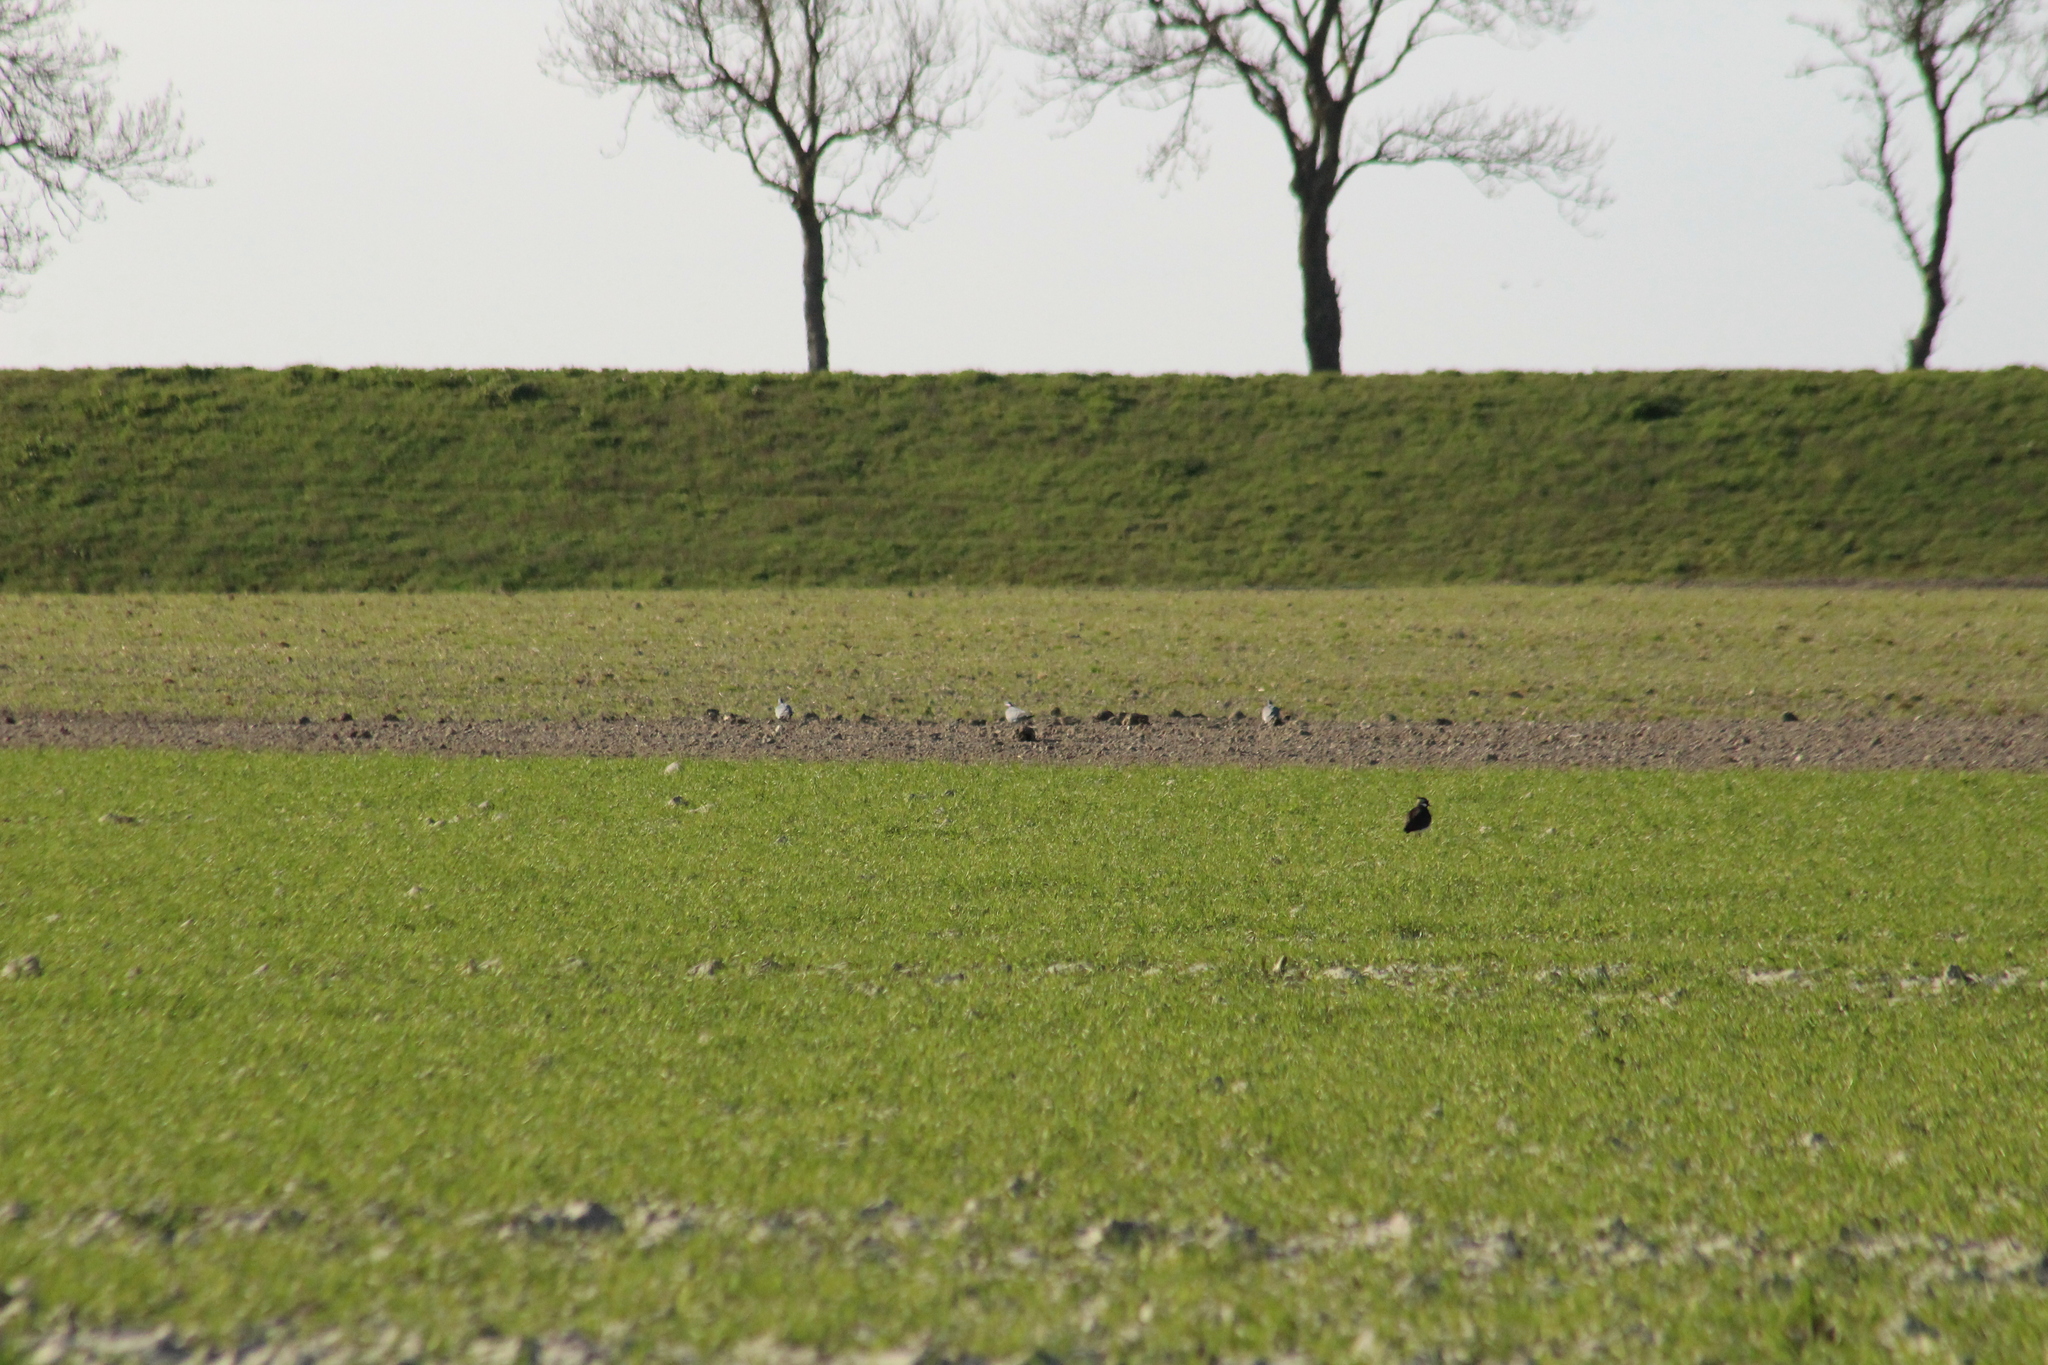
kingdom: Animalia
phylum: Chordata
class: Aves
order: Columbiformes
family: Columbidae
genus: Columba
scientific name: Columba palumbus
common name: Common wood pigeon
